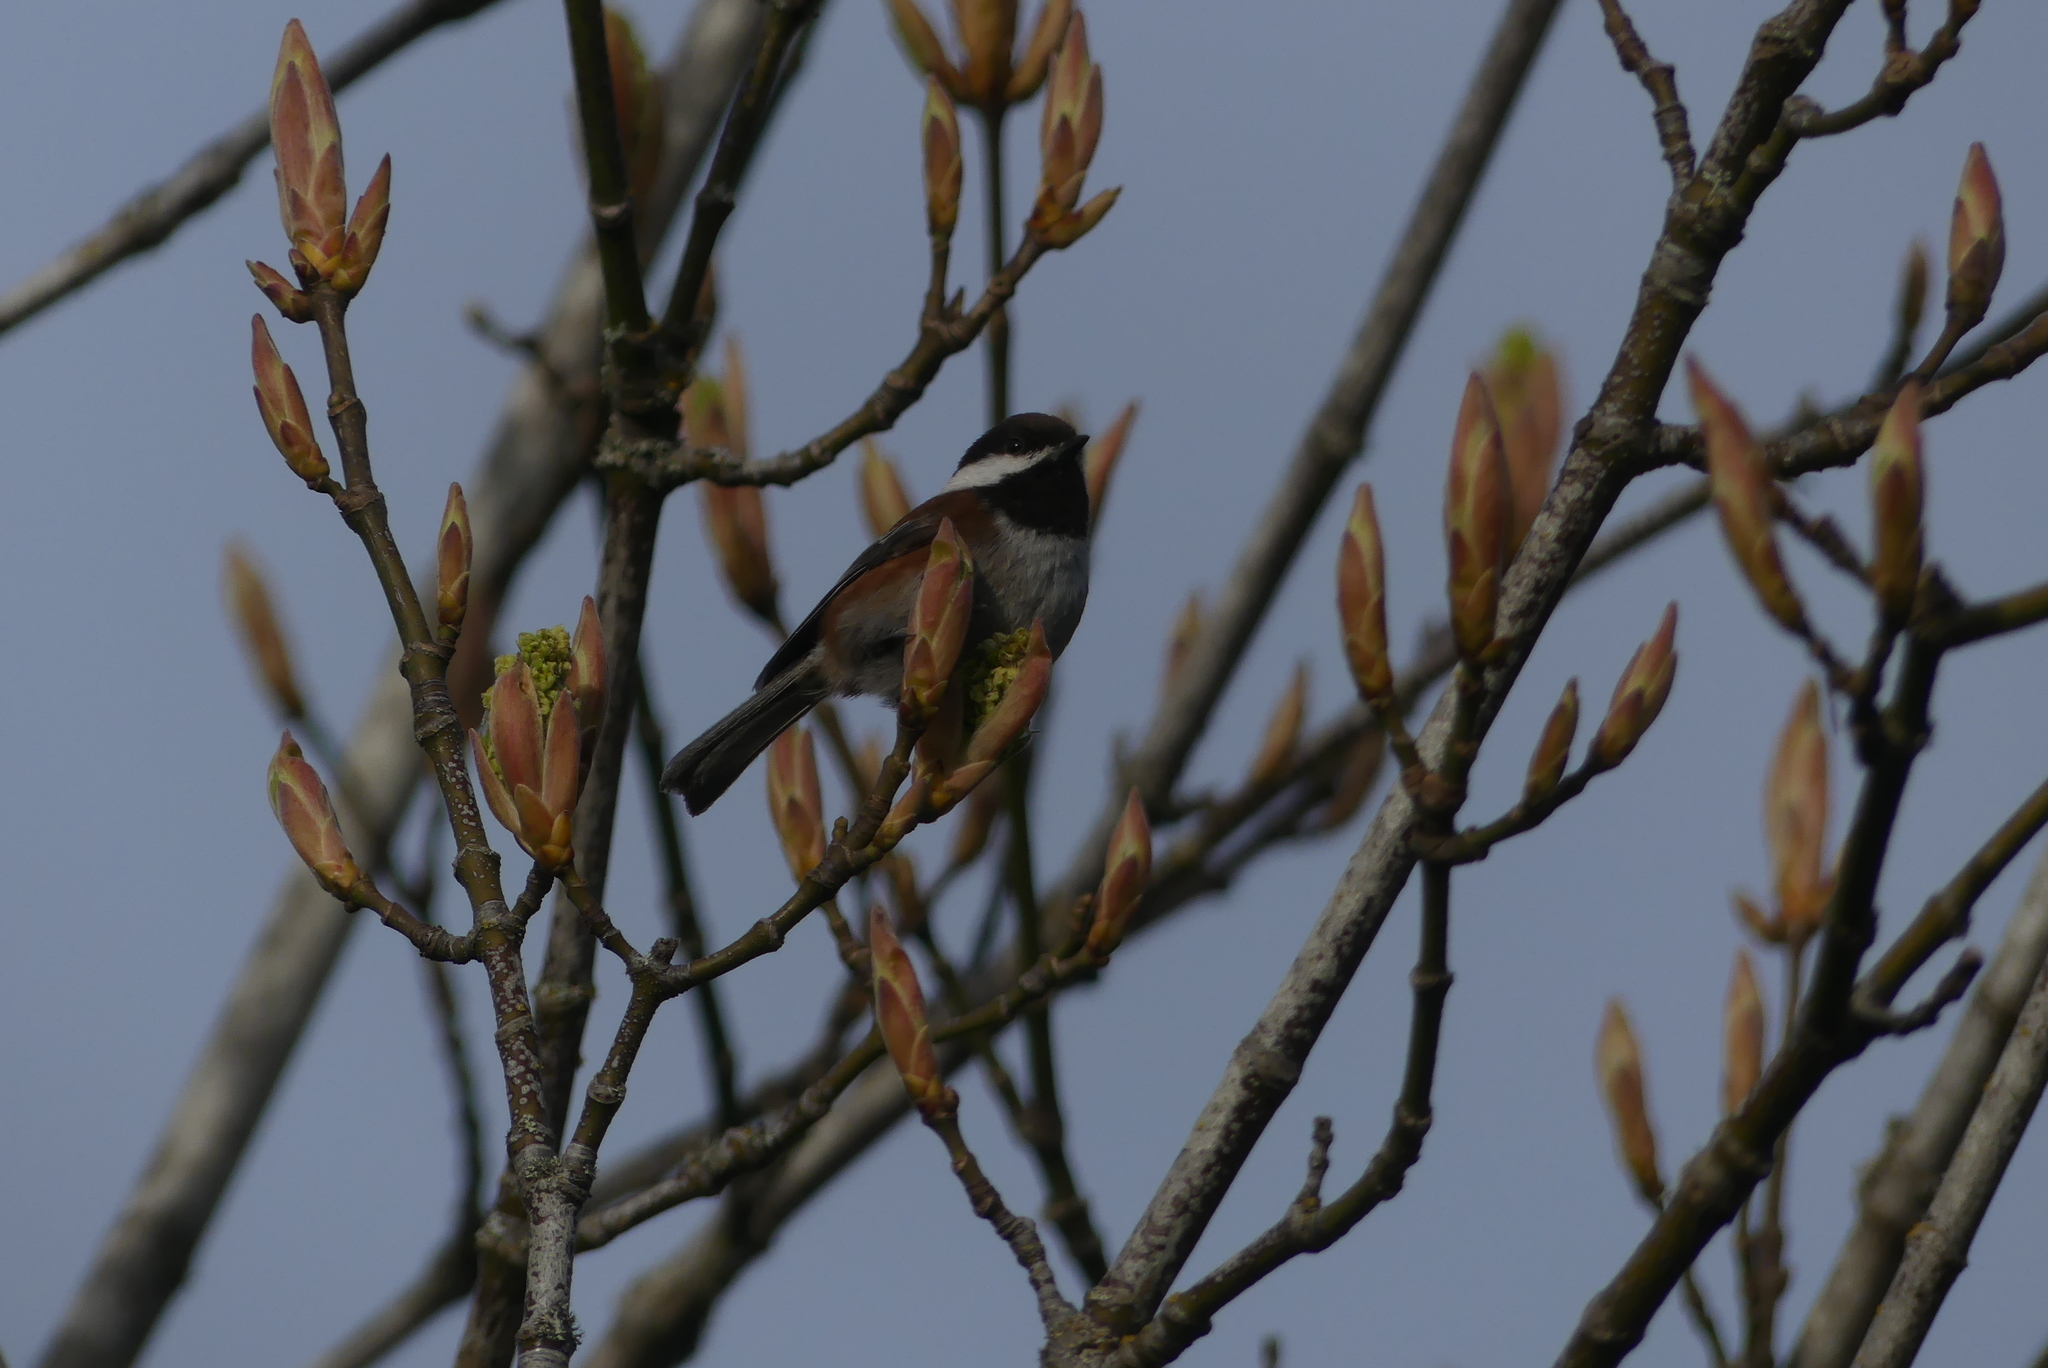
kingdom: Animalia
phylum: Chordata
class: Aves
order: Passeriformes
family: Paridae
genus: Poecile
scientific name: Poecile rufescens
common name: Chestnut-backed chickadee
